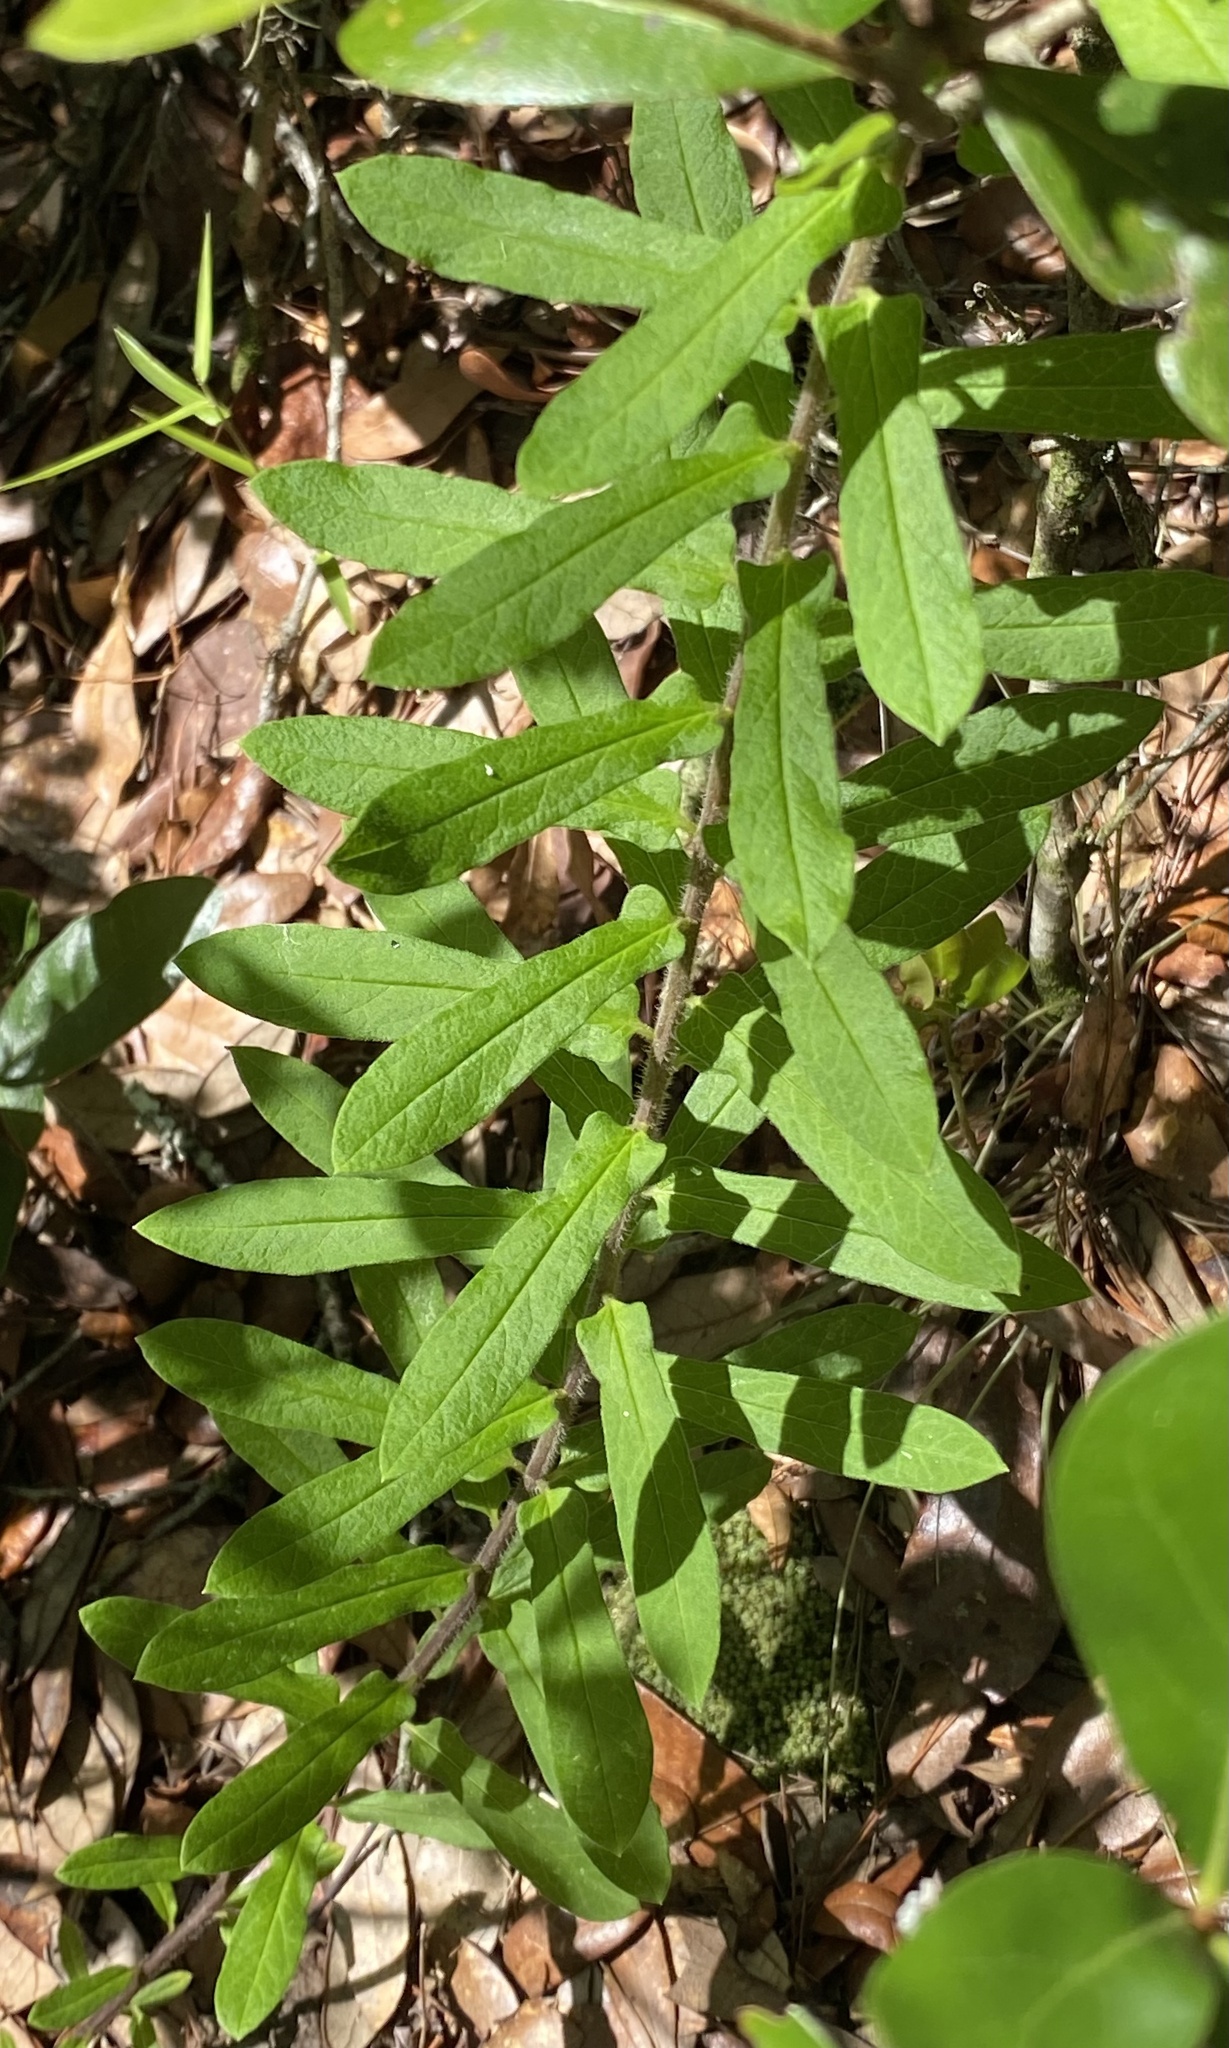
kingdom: Plantae
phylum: Tracheophyta
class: Magnoliopsida
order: Gentianales
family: Apocynaceae
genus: Asclepias
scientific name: Asclepias tuberosa
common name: Butterfly milkweed
